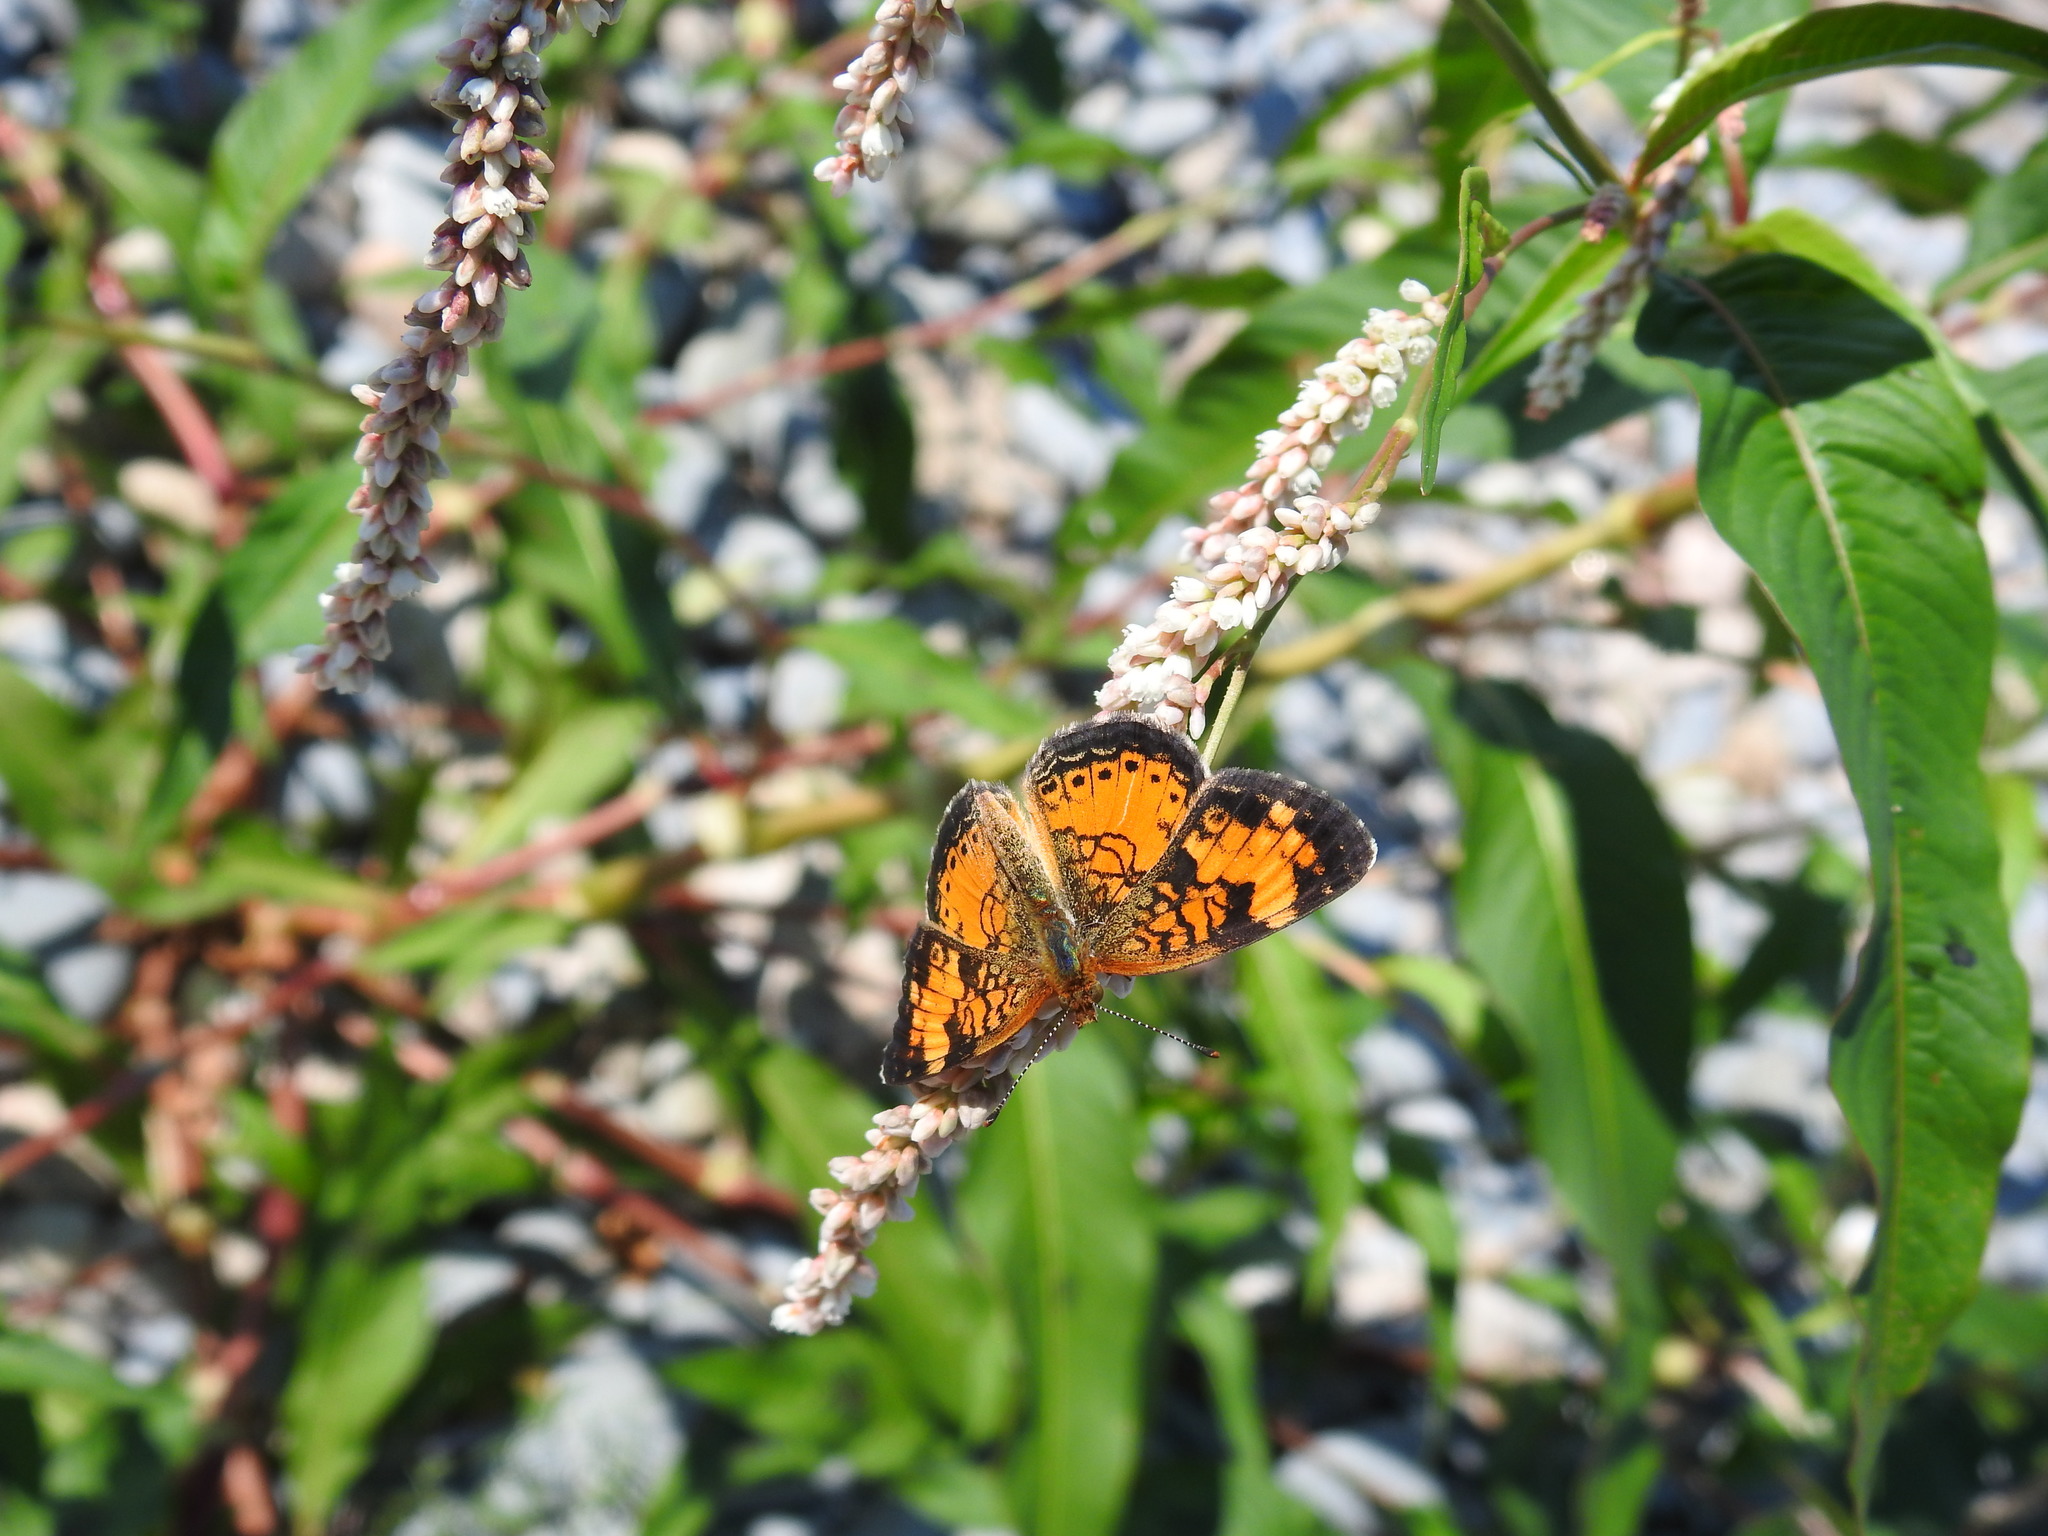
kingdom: Animalia
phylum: Arthropoda
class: Insecta
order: Lepidoptera
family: Nymphalidae
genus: Phyciodes
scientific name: Phyciodes tharos
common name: Pearl crescent
